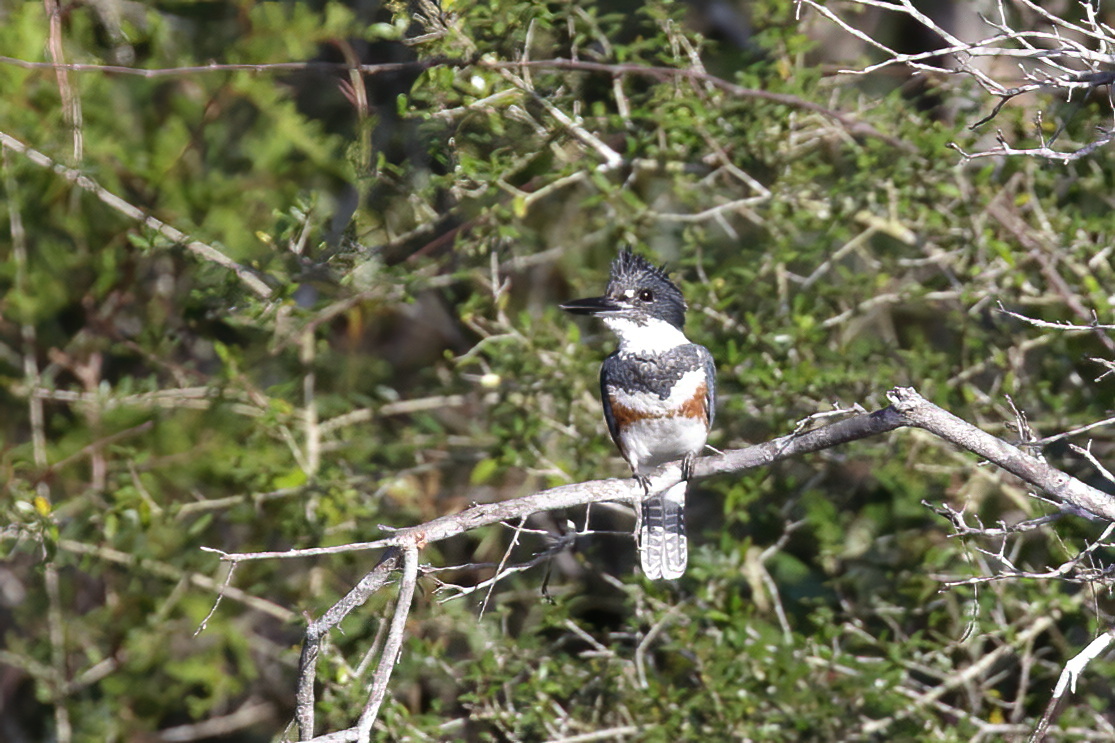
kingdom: Animalia
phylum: Chordata
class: Aves
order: Coraciiformes
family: Alcedinidae
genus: Megaceryle
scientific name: Megaceryle alcyon
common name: Belted kingfisher
